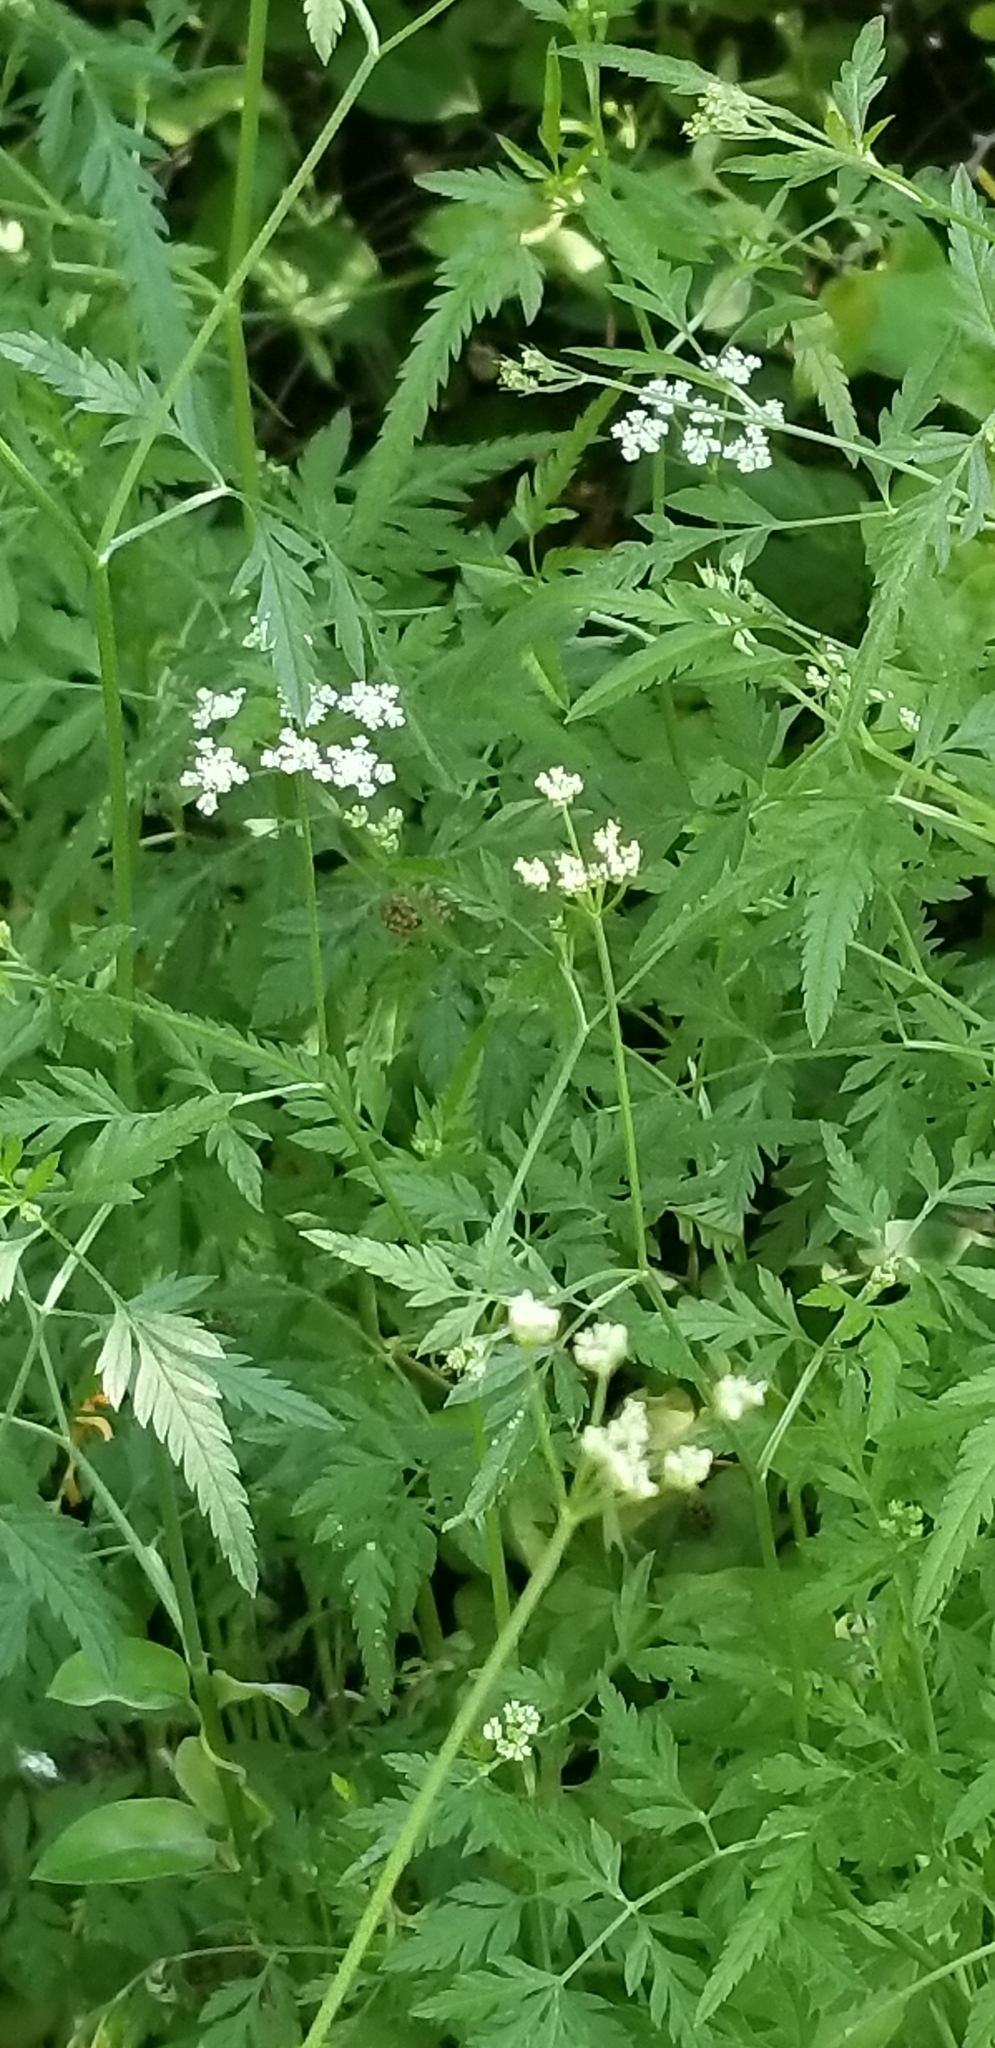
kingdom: Plantae
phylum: Tracheophyta
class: Magnoliopsida
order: Apiales
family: Apiaceae
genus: Torilis
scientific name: Torilis arvensis
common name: Spreading hedge-parsley
